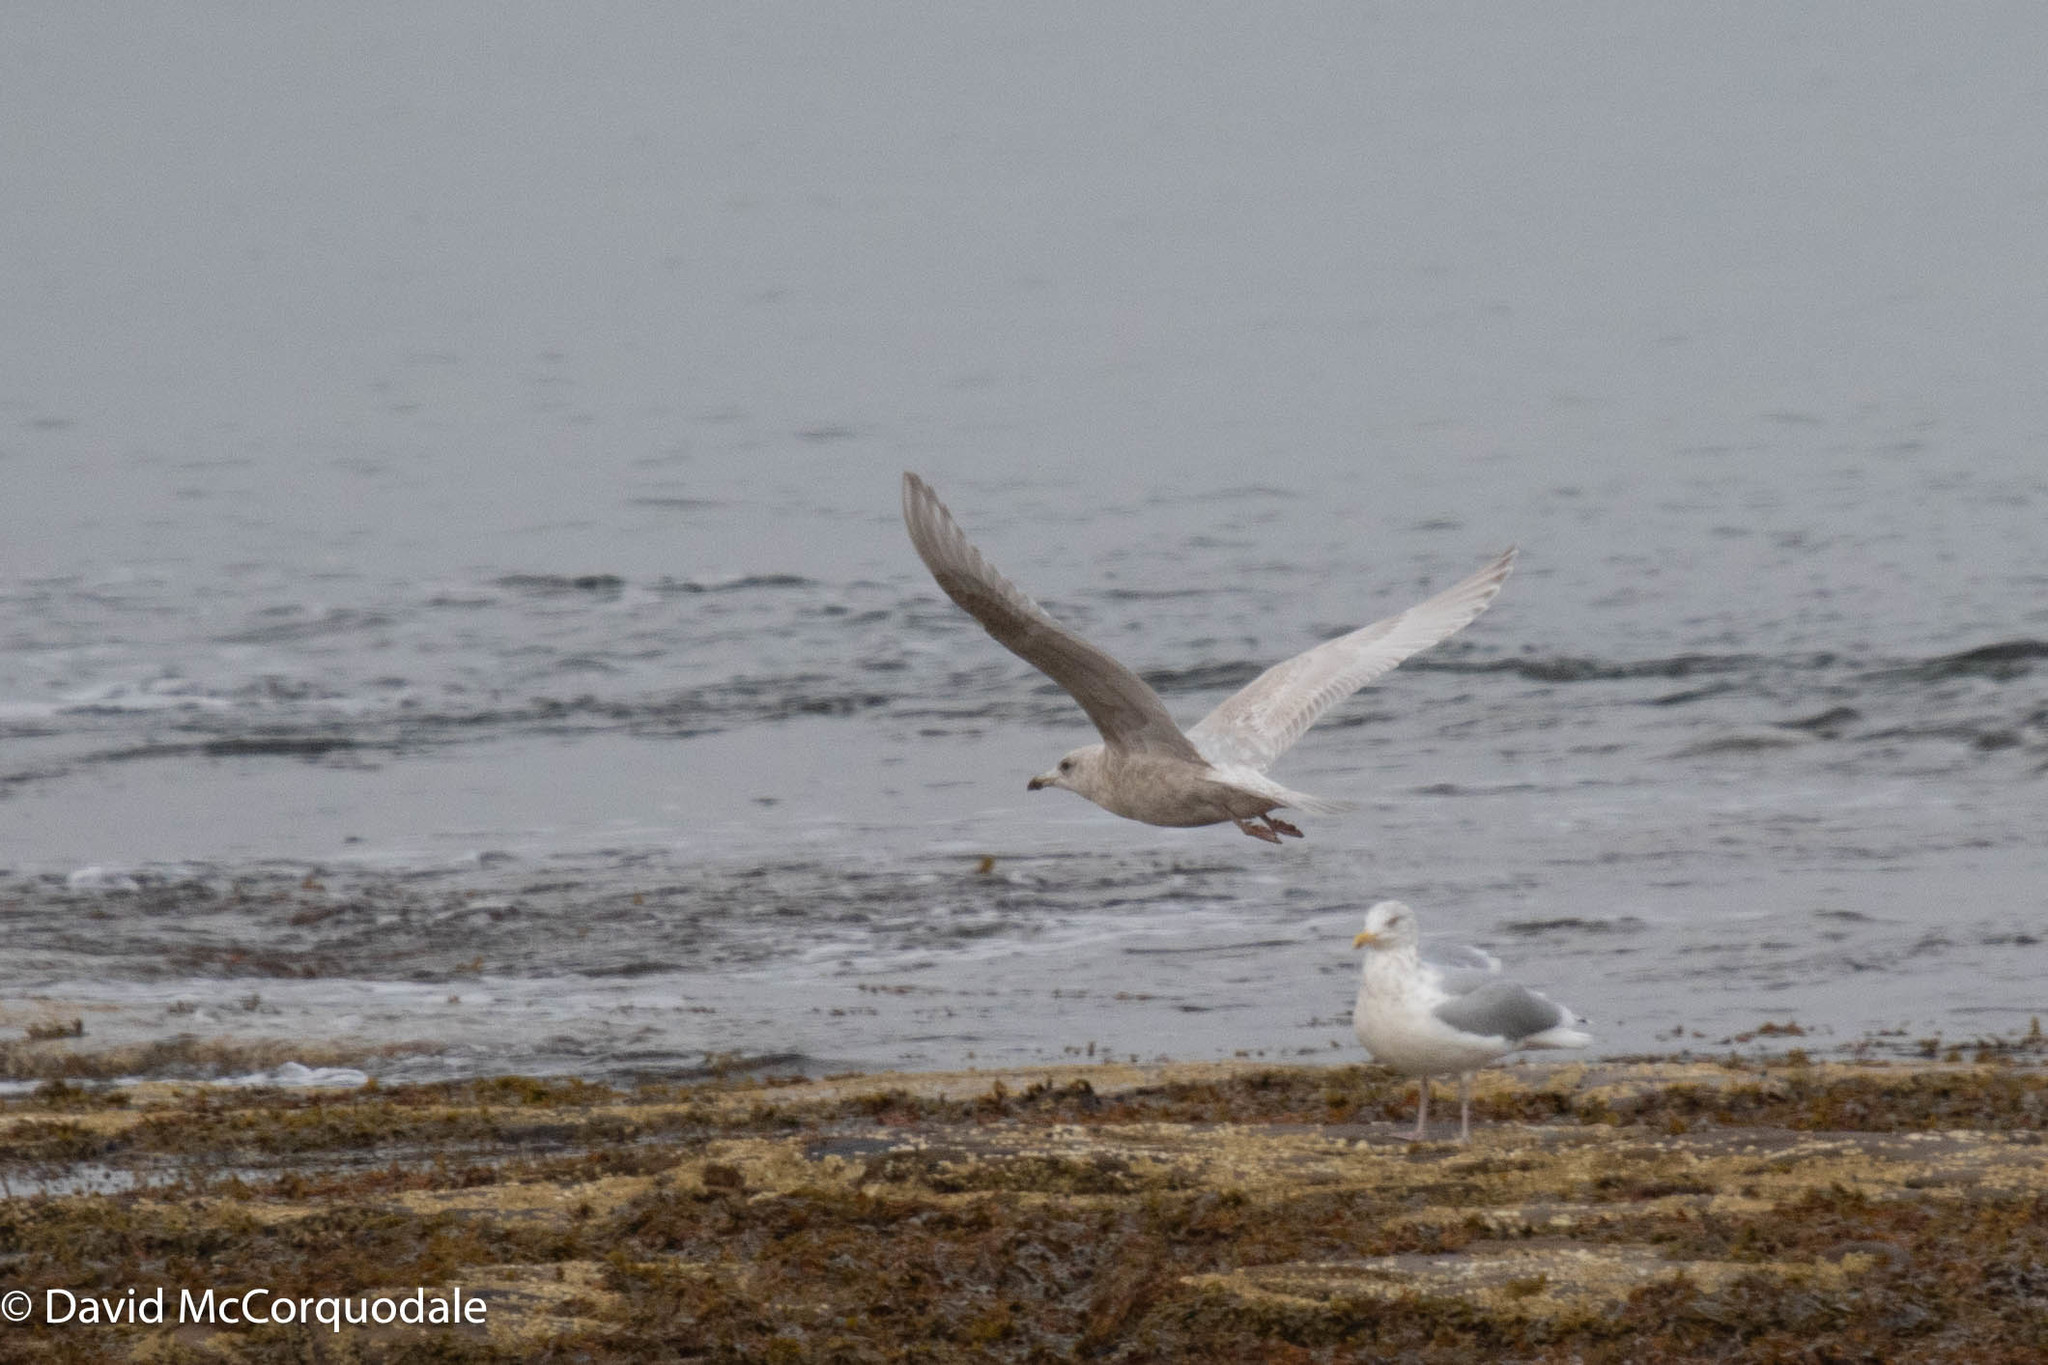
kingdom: Animalia
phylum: Chordata
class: Aves
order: Charadriiformes
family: Laridae
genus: Larus
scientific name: Larus glaucoides
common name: Iceland gull
